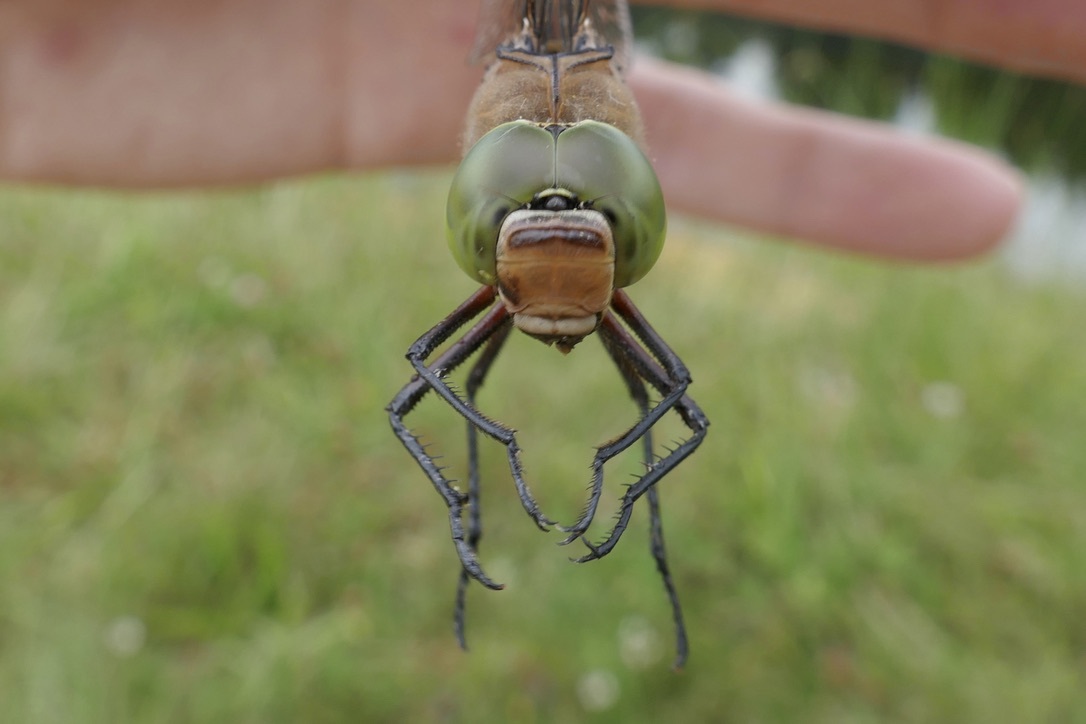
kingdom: Animalia
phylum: Arthropoda
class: Insecta
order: Odonata
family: Aeshnidae
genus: Anax
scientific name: Anax parthenope
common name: Lesser emperor
